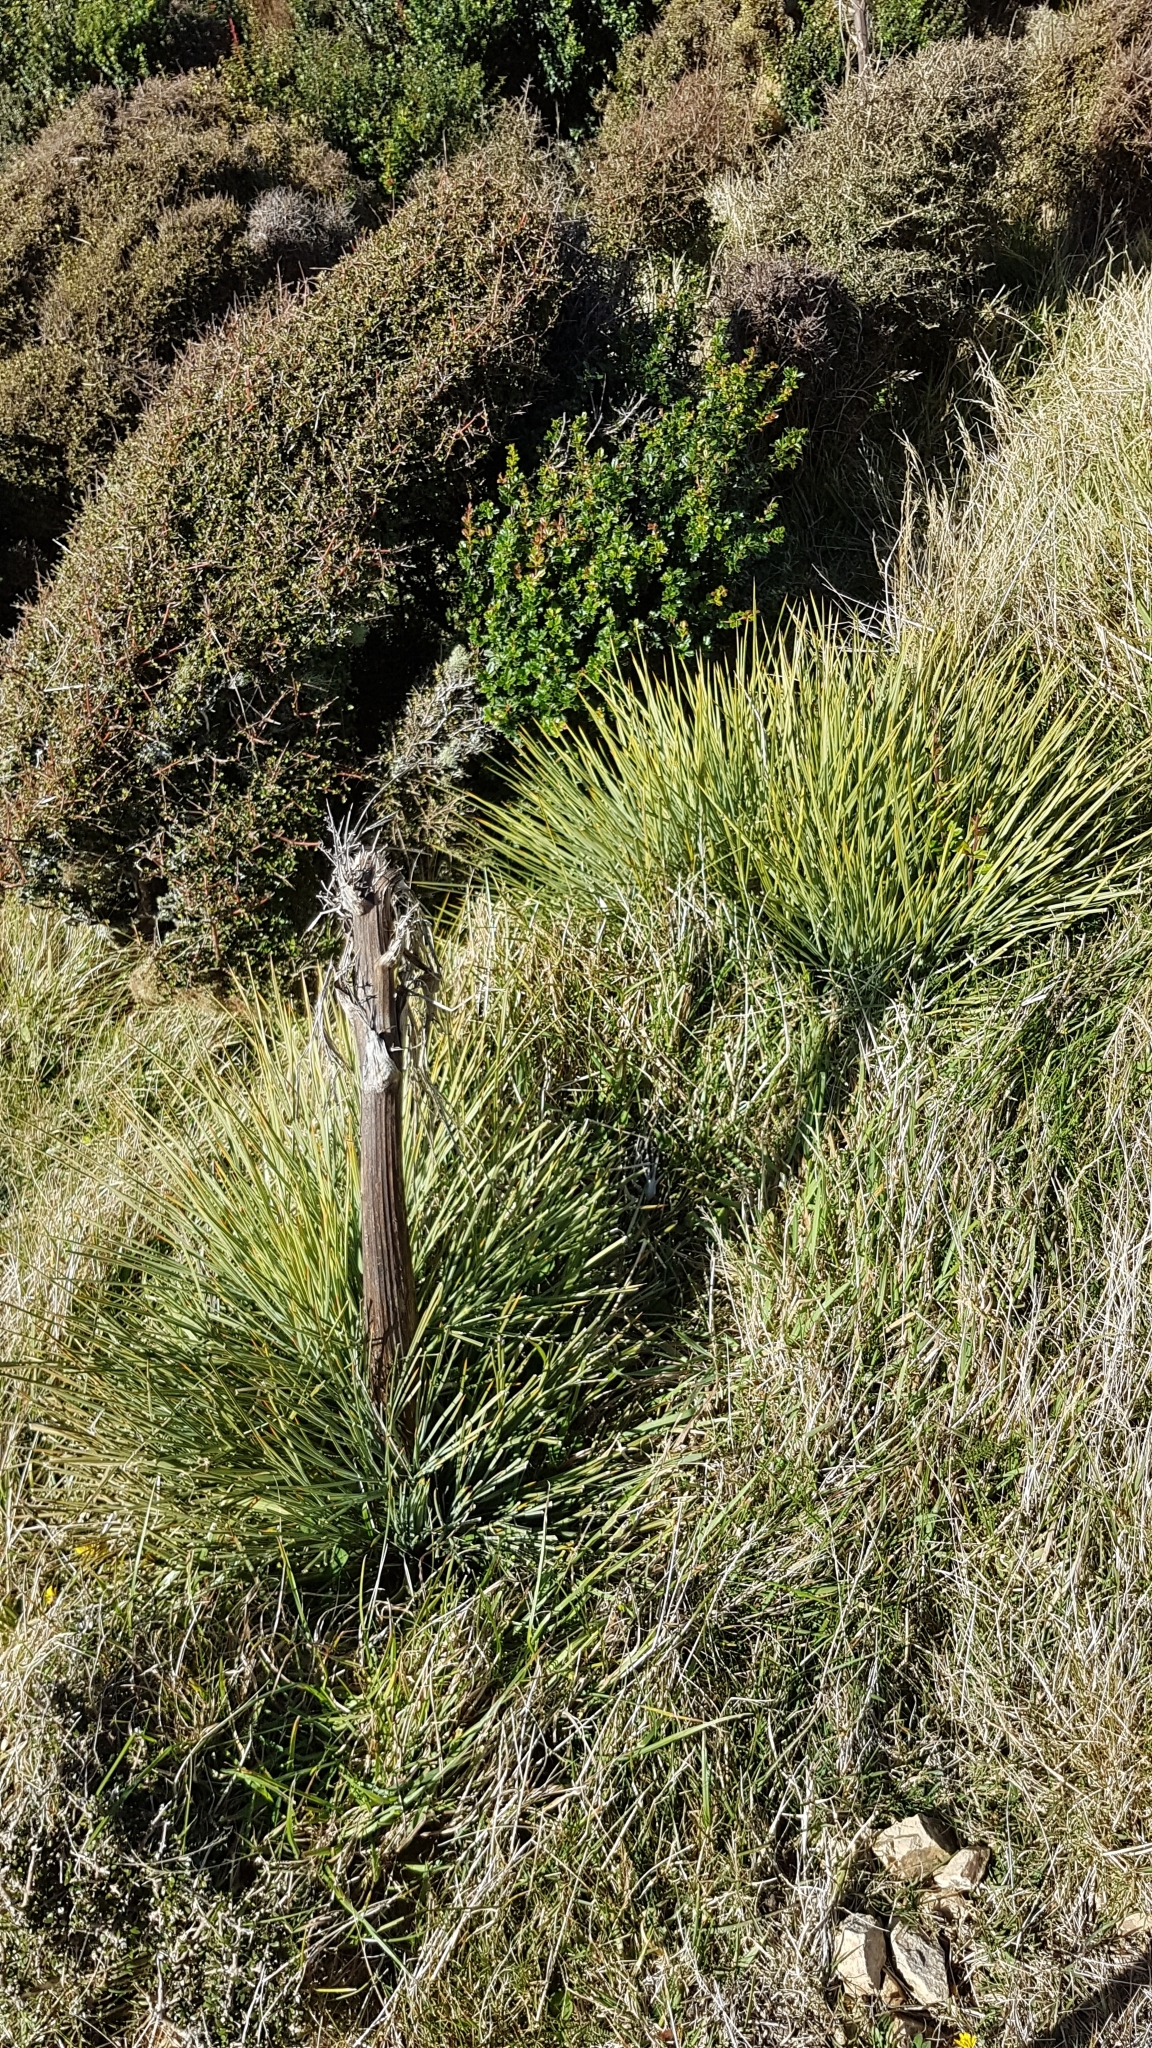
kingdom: Plantae
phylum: Tracheophyta
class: Magnoliopsida
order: Apiales
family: Apiaceae
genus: Aciphylla
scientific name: Aciphylla squarrosa
